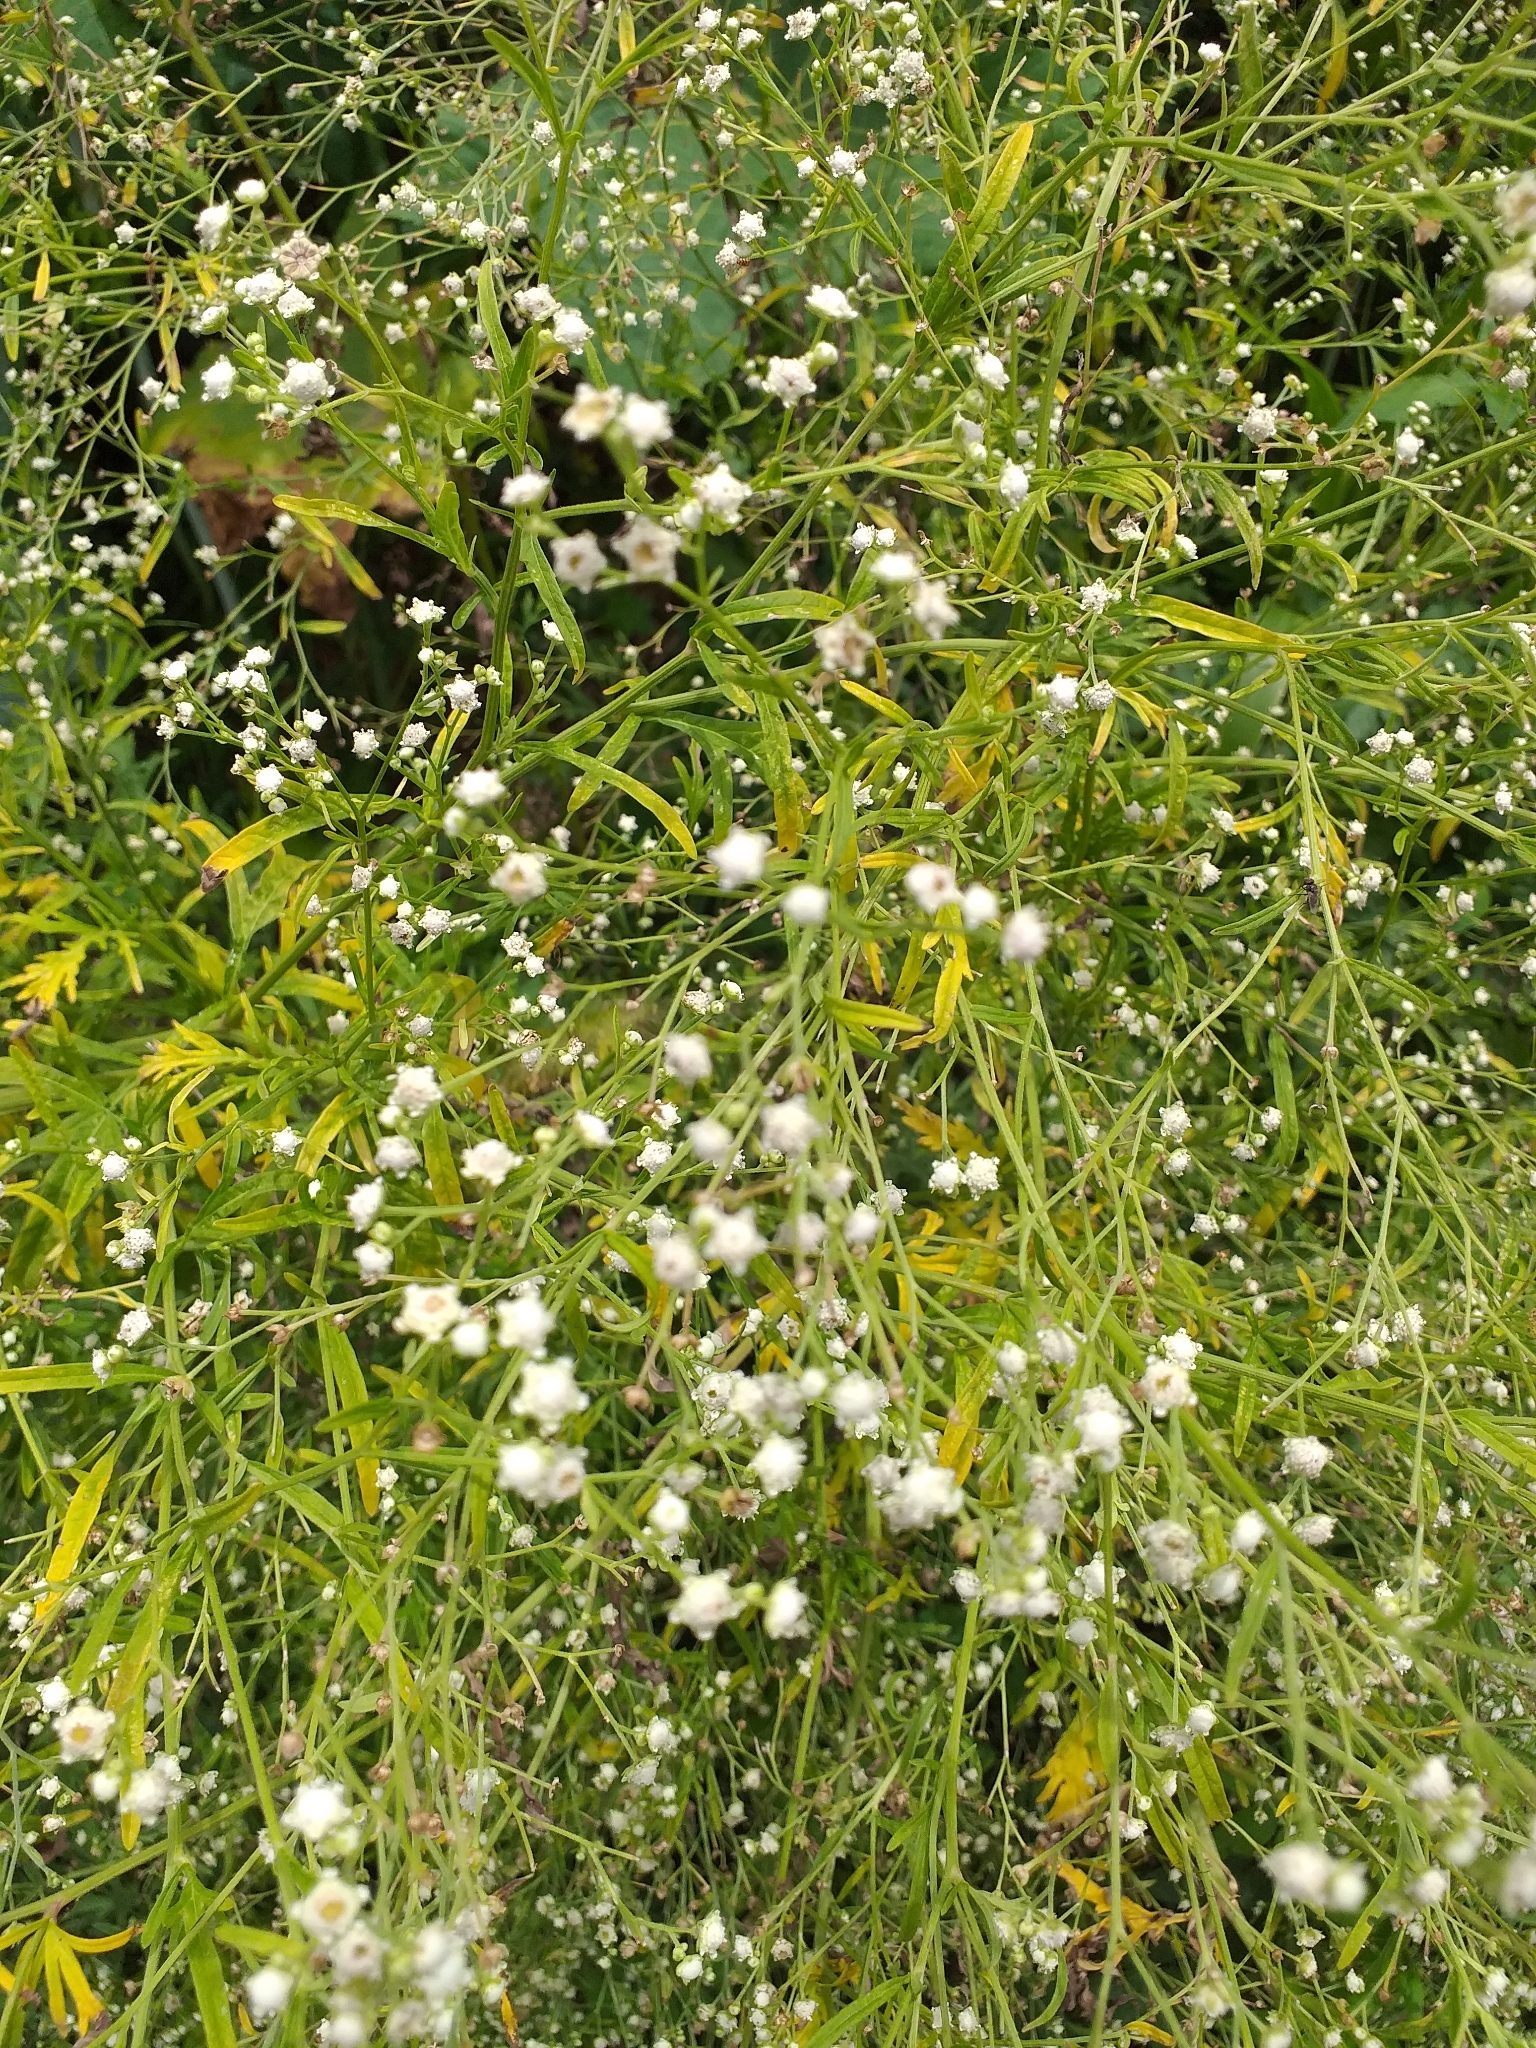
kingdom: Plantae
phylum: Tracheophyta
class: Magnoliopsida
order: Asterales
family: Asteraceae
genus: Parthenium
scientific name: Parthenium hysterophorus
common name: Santa maria feverfew
